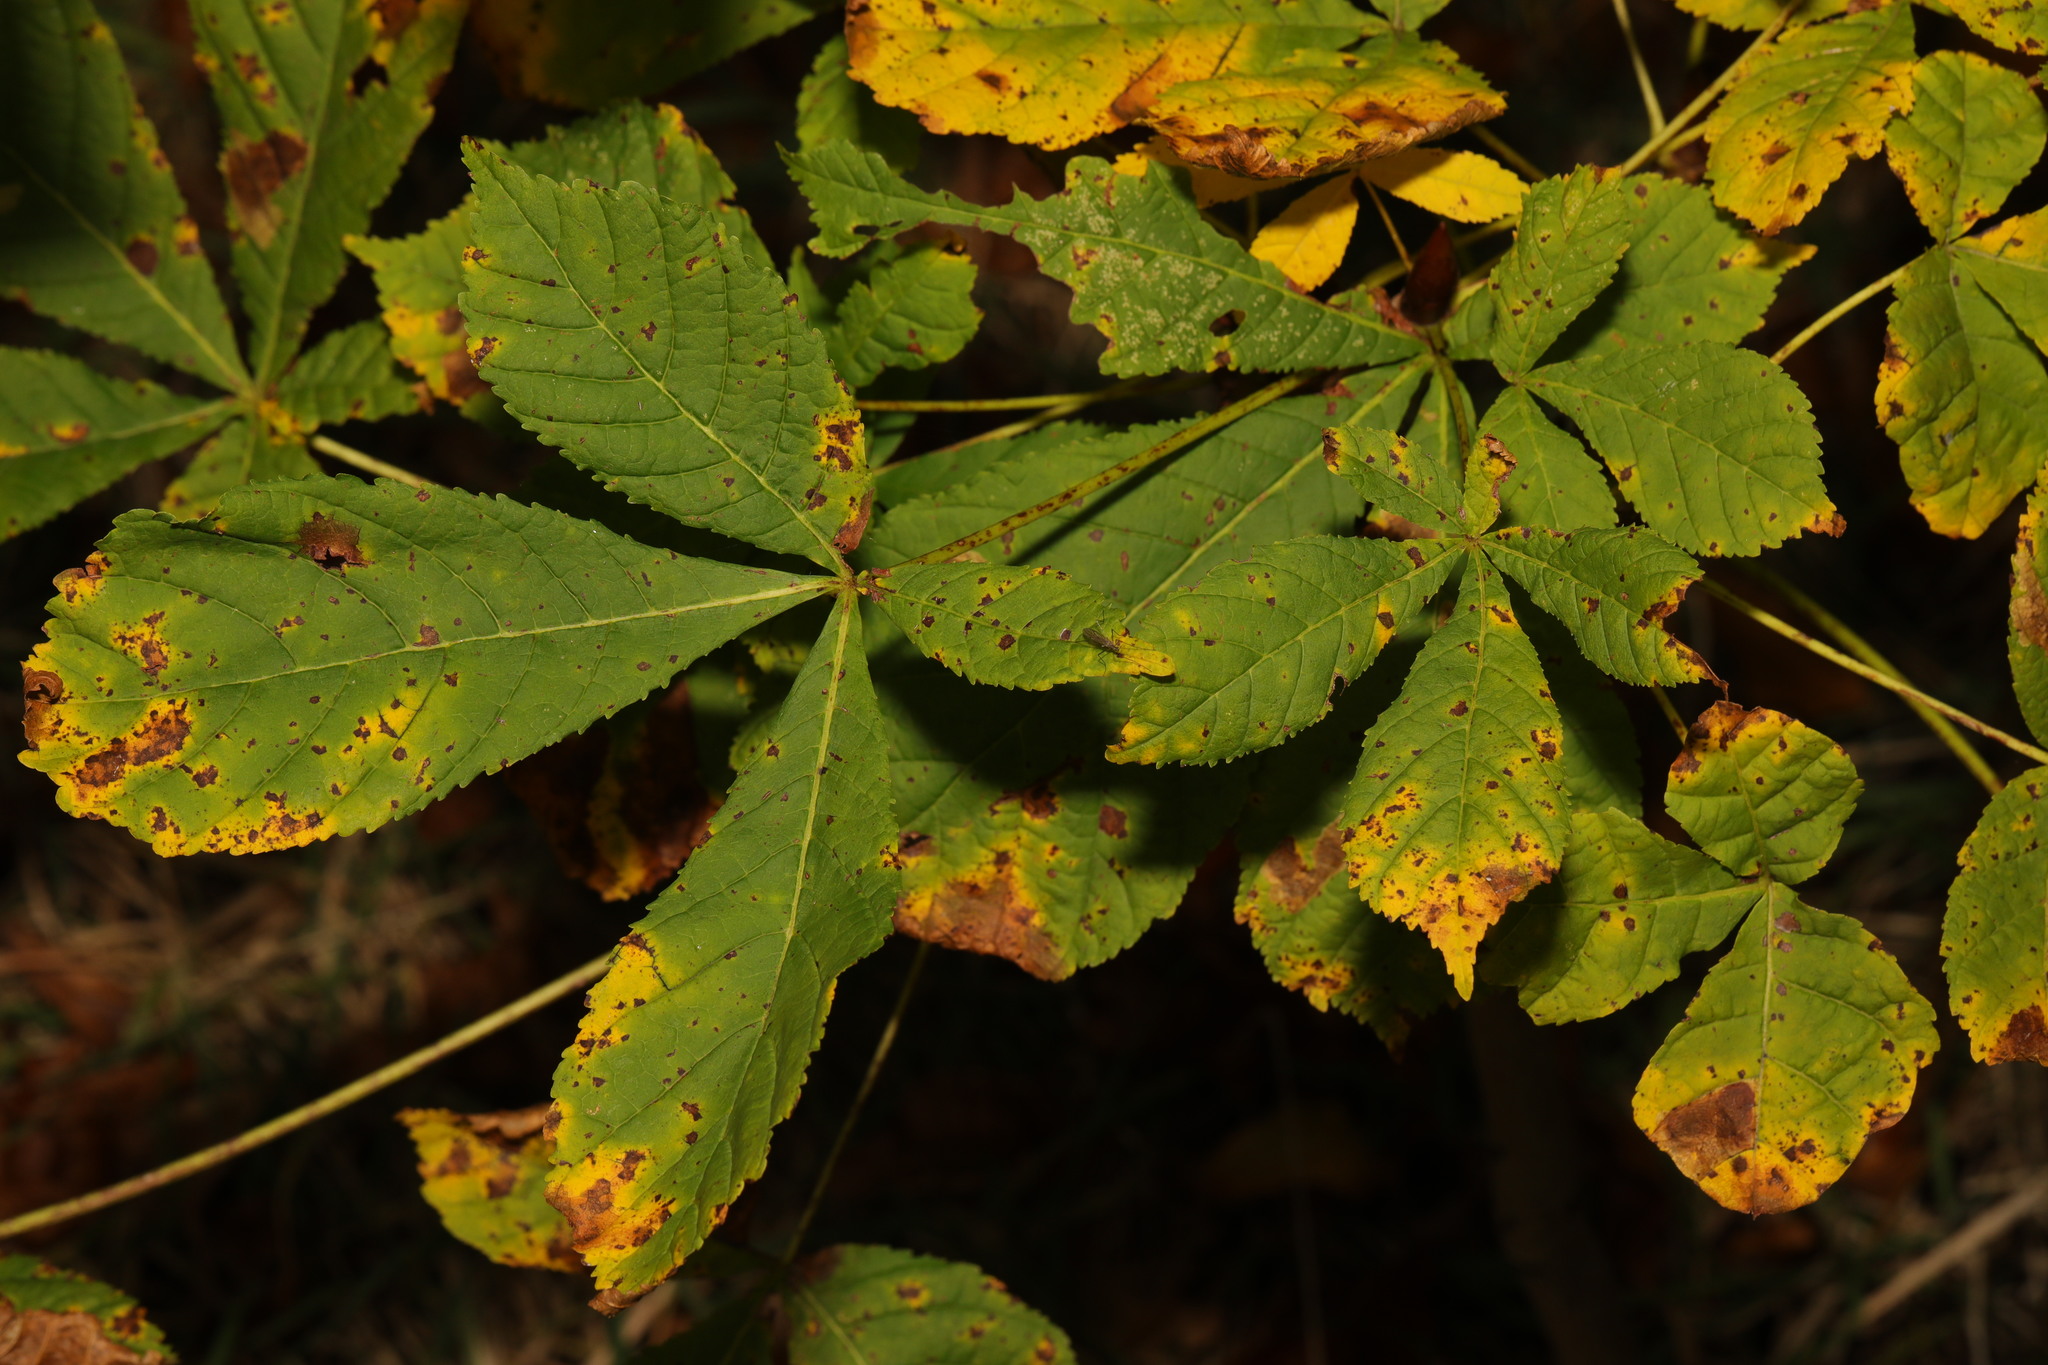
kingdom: Plantae
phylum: Tracheophyta
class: Magnoliopsida
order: Sapindales
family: Sapindaceae
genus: Aesculus
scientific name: Aesculus hippocastanum
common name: Horse-chestnut
